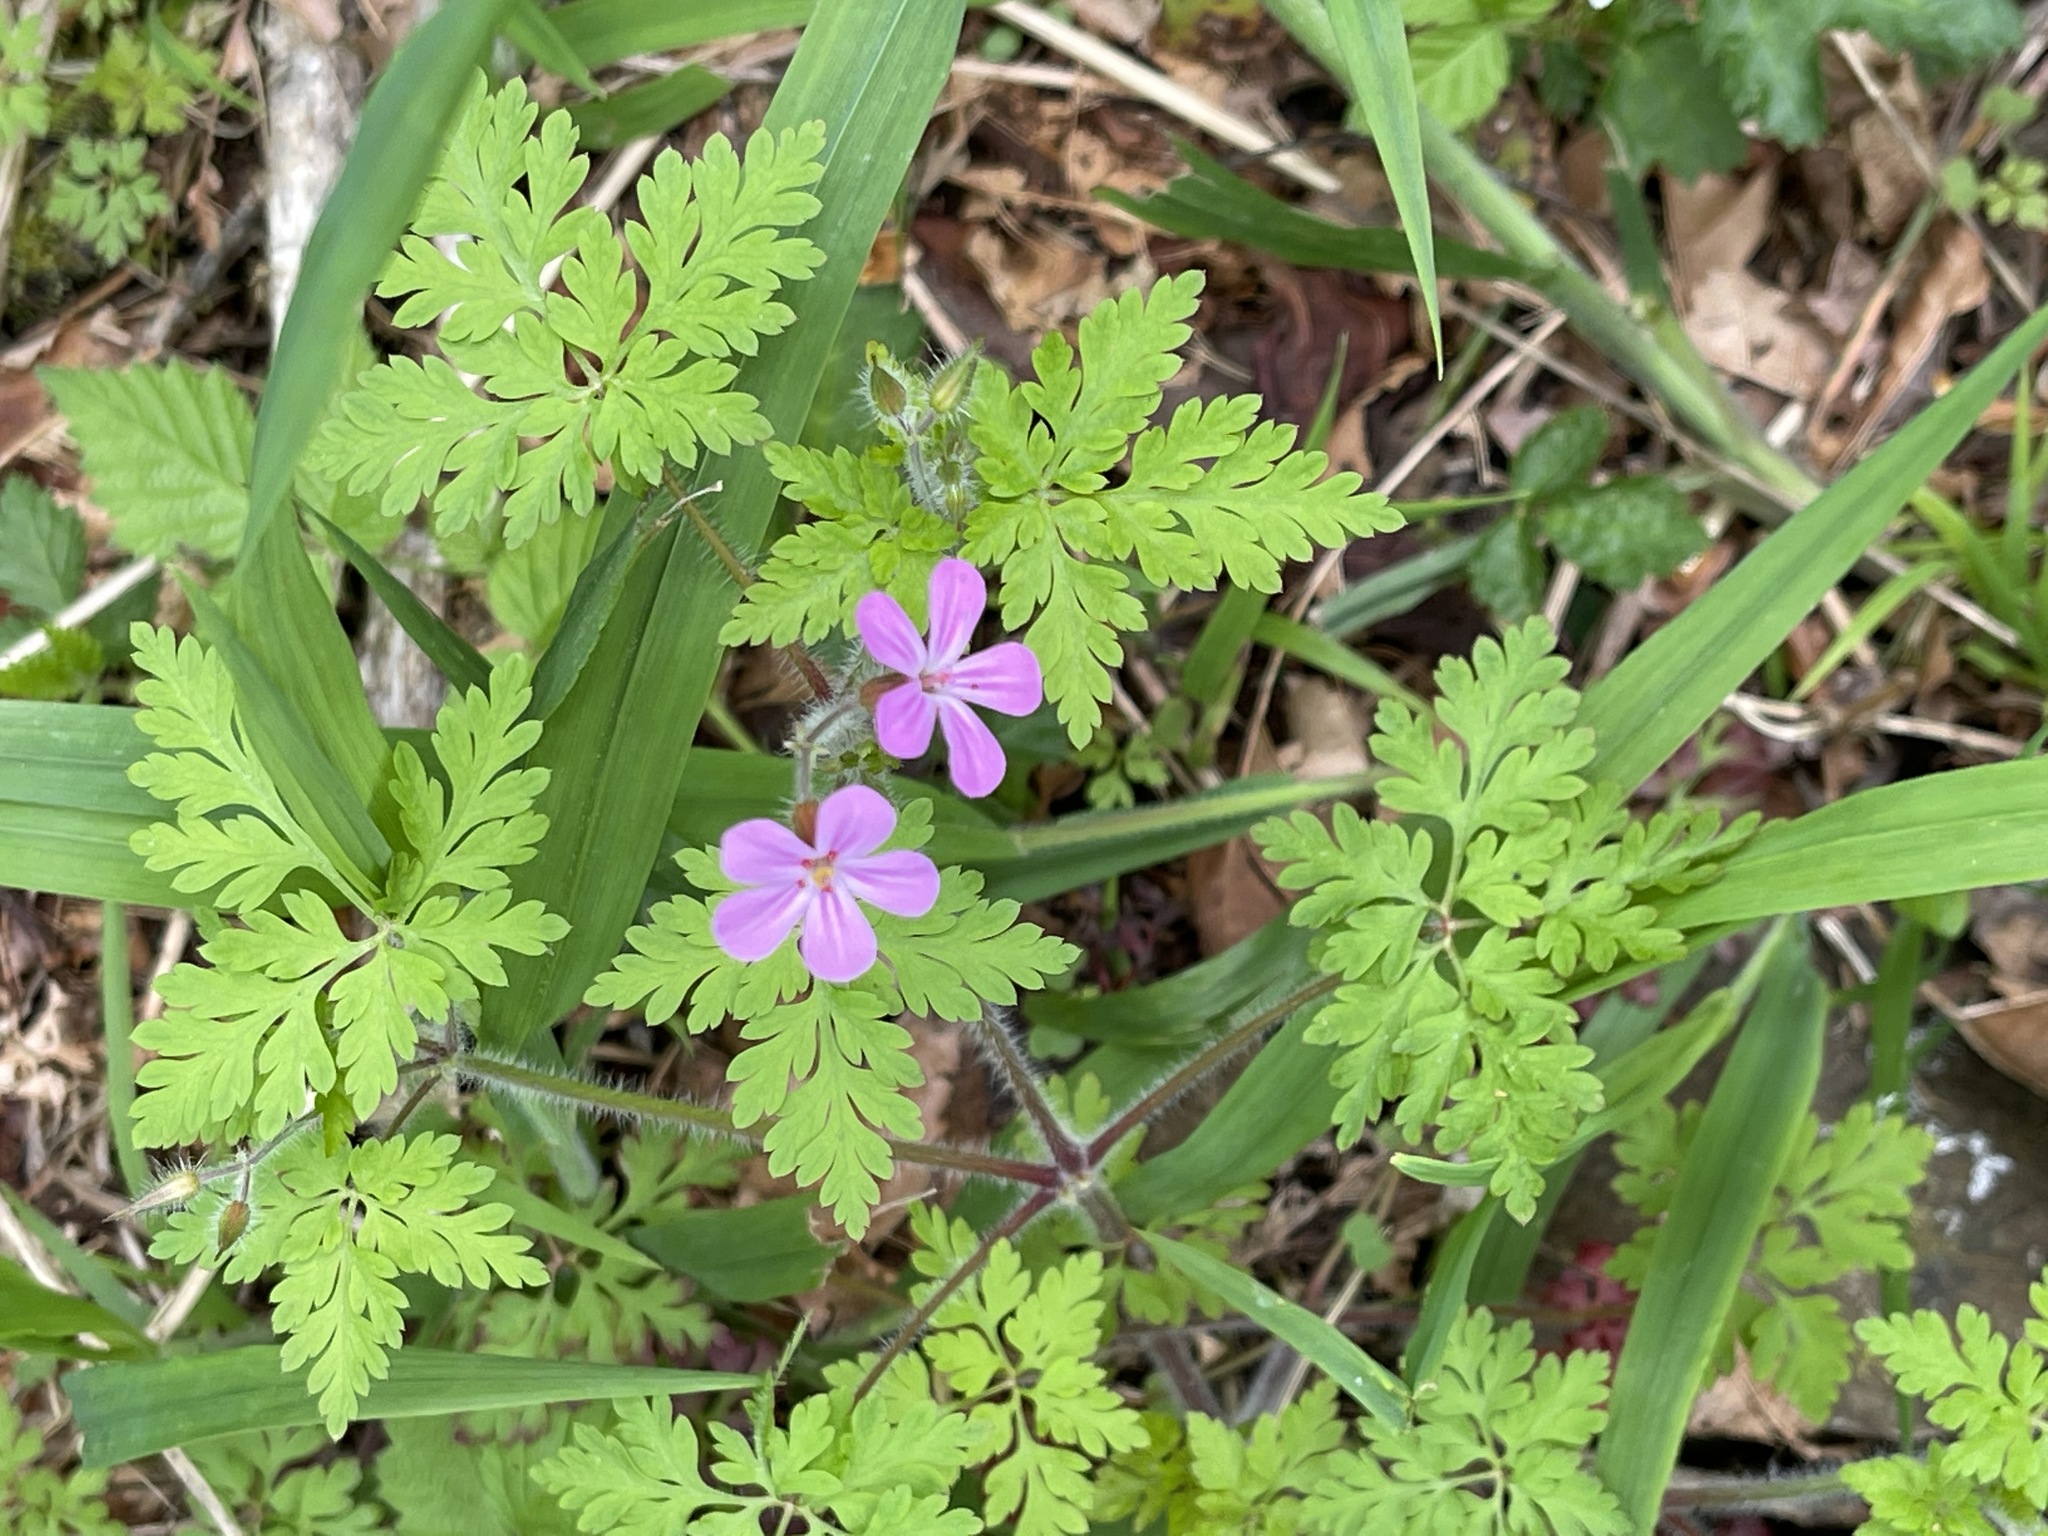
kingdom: Plantae
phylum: Tracheophyta
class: Magnoliopsida
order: Geraniales
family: Geraniaceae
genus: Geranium
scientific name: Geranium robertianum
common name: Herb-robert
